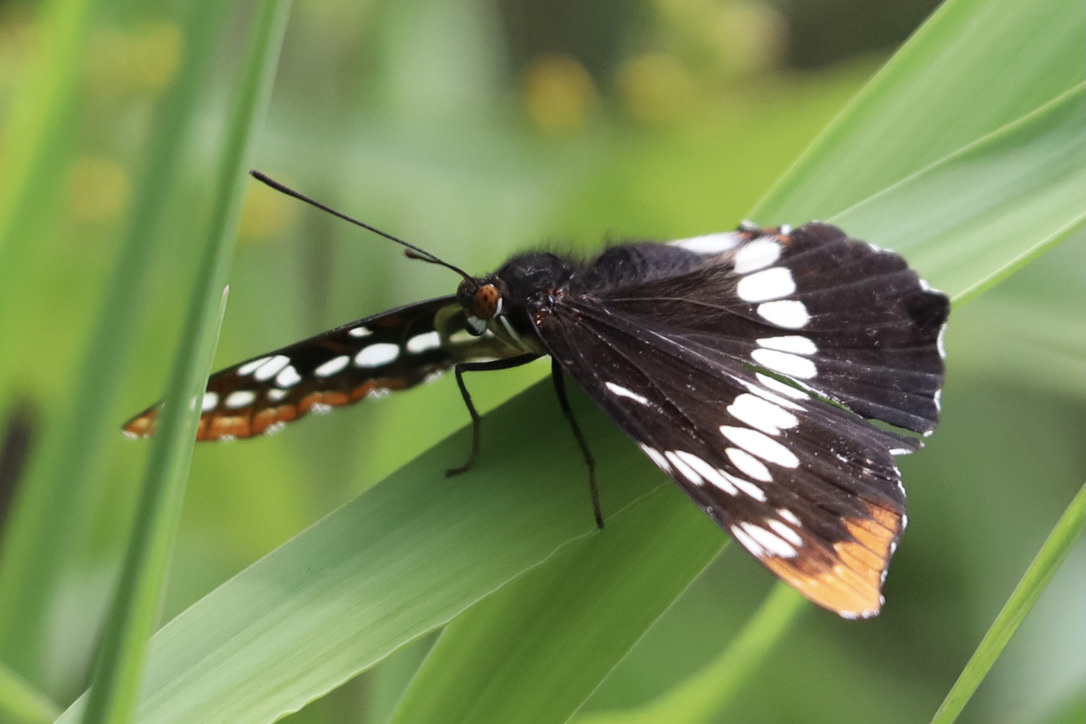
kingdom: Animalia
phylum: Arthropoda
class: Insecta
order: Lepidoptera
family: Nymphalidae
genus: Limenitis
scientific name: Limenitis lorquini
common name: Lorquin's admiral
